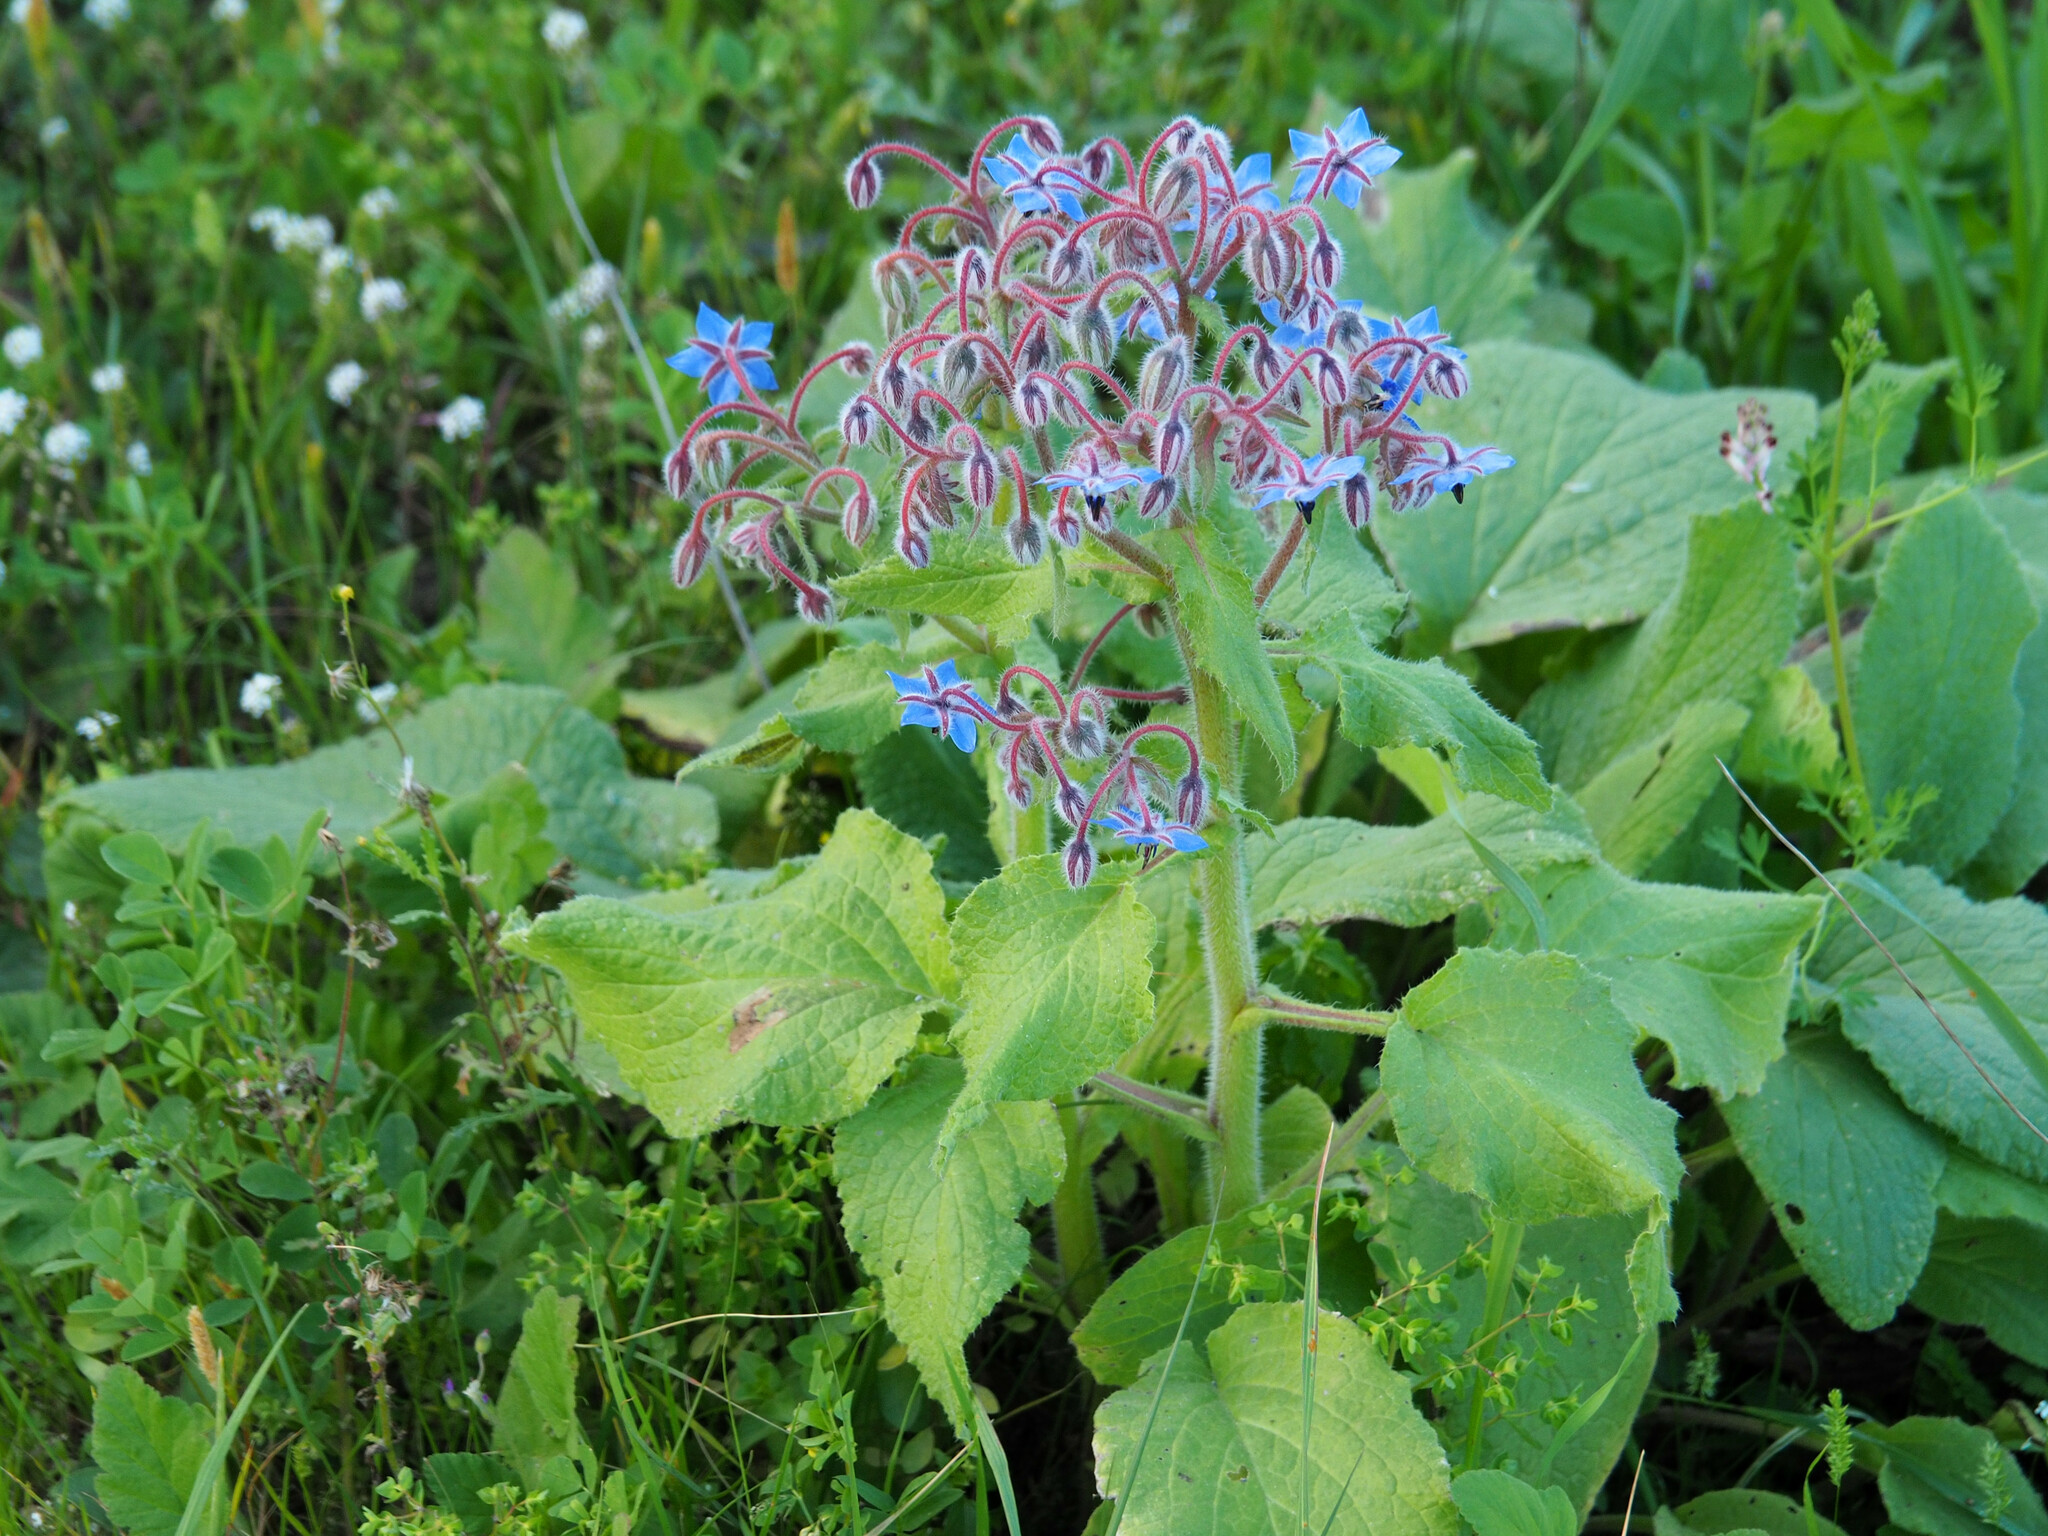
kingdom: Plantae
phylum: Tracheophyta
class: Magnoliopsida
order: Boraginales
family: Boraginaceae
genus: Borago
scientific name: Borago officinalis
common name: Borage
